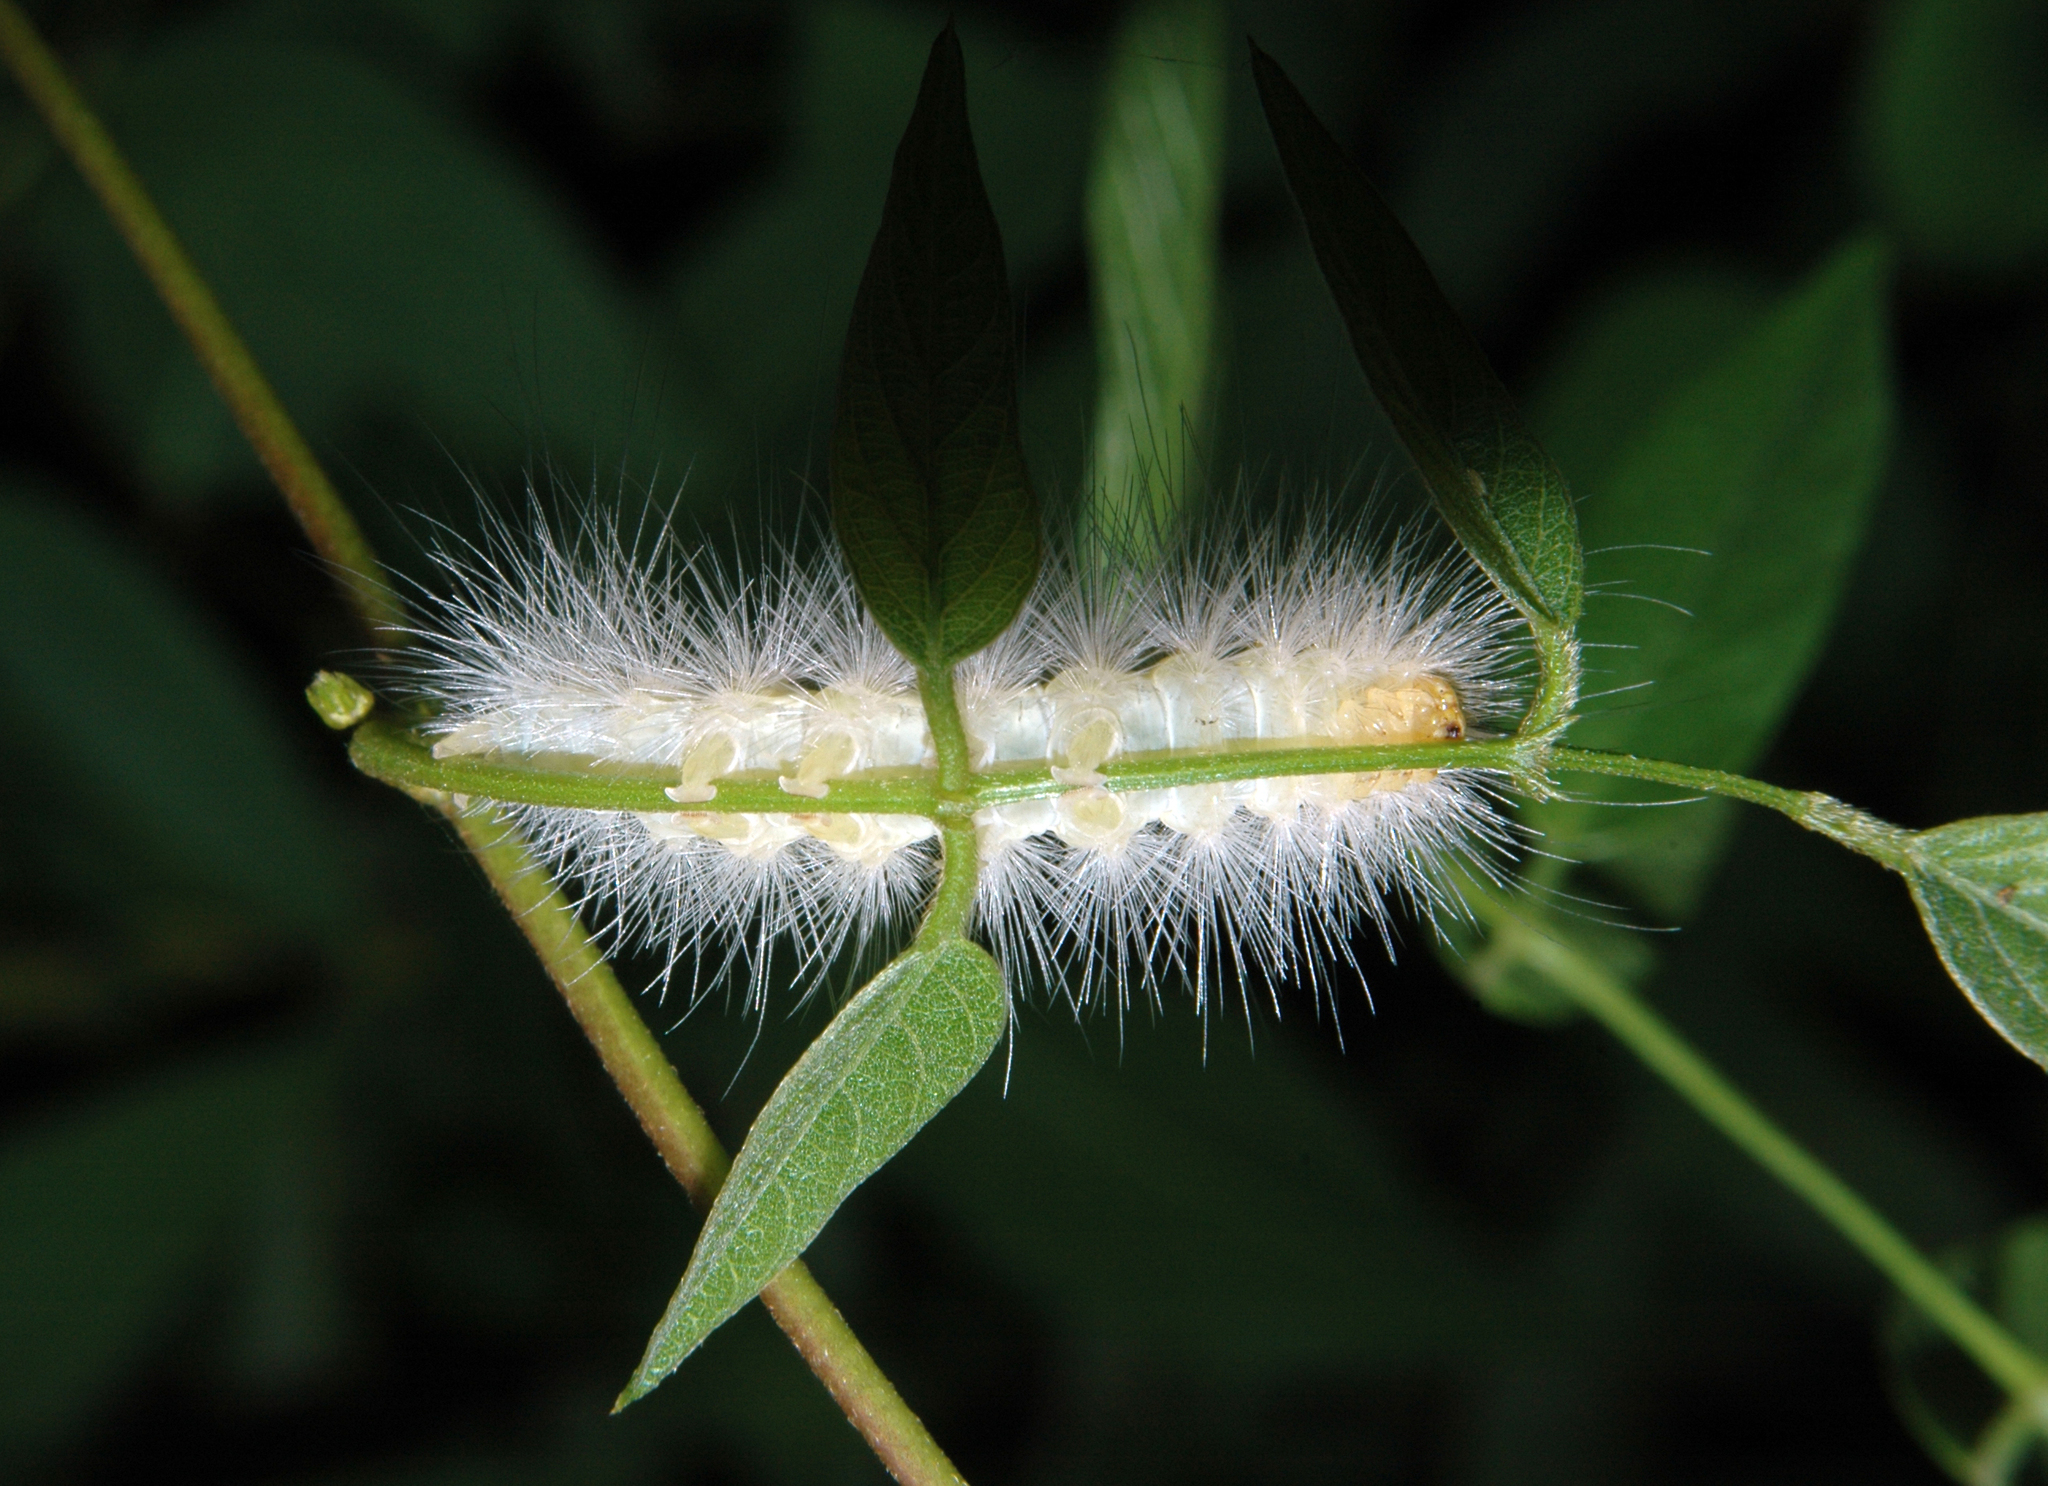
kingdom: Animalia
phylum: Arthropoda
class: Insecta
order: Lepidoptera
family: Erebidae
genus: Estigmene
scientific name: Estigmene acrea
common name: Salt marsh moth
